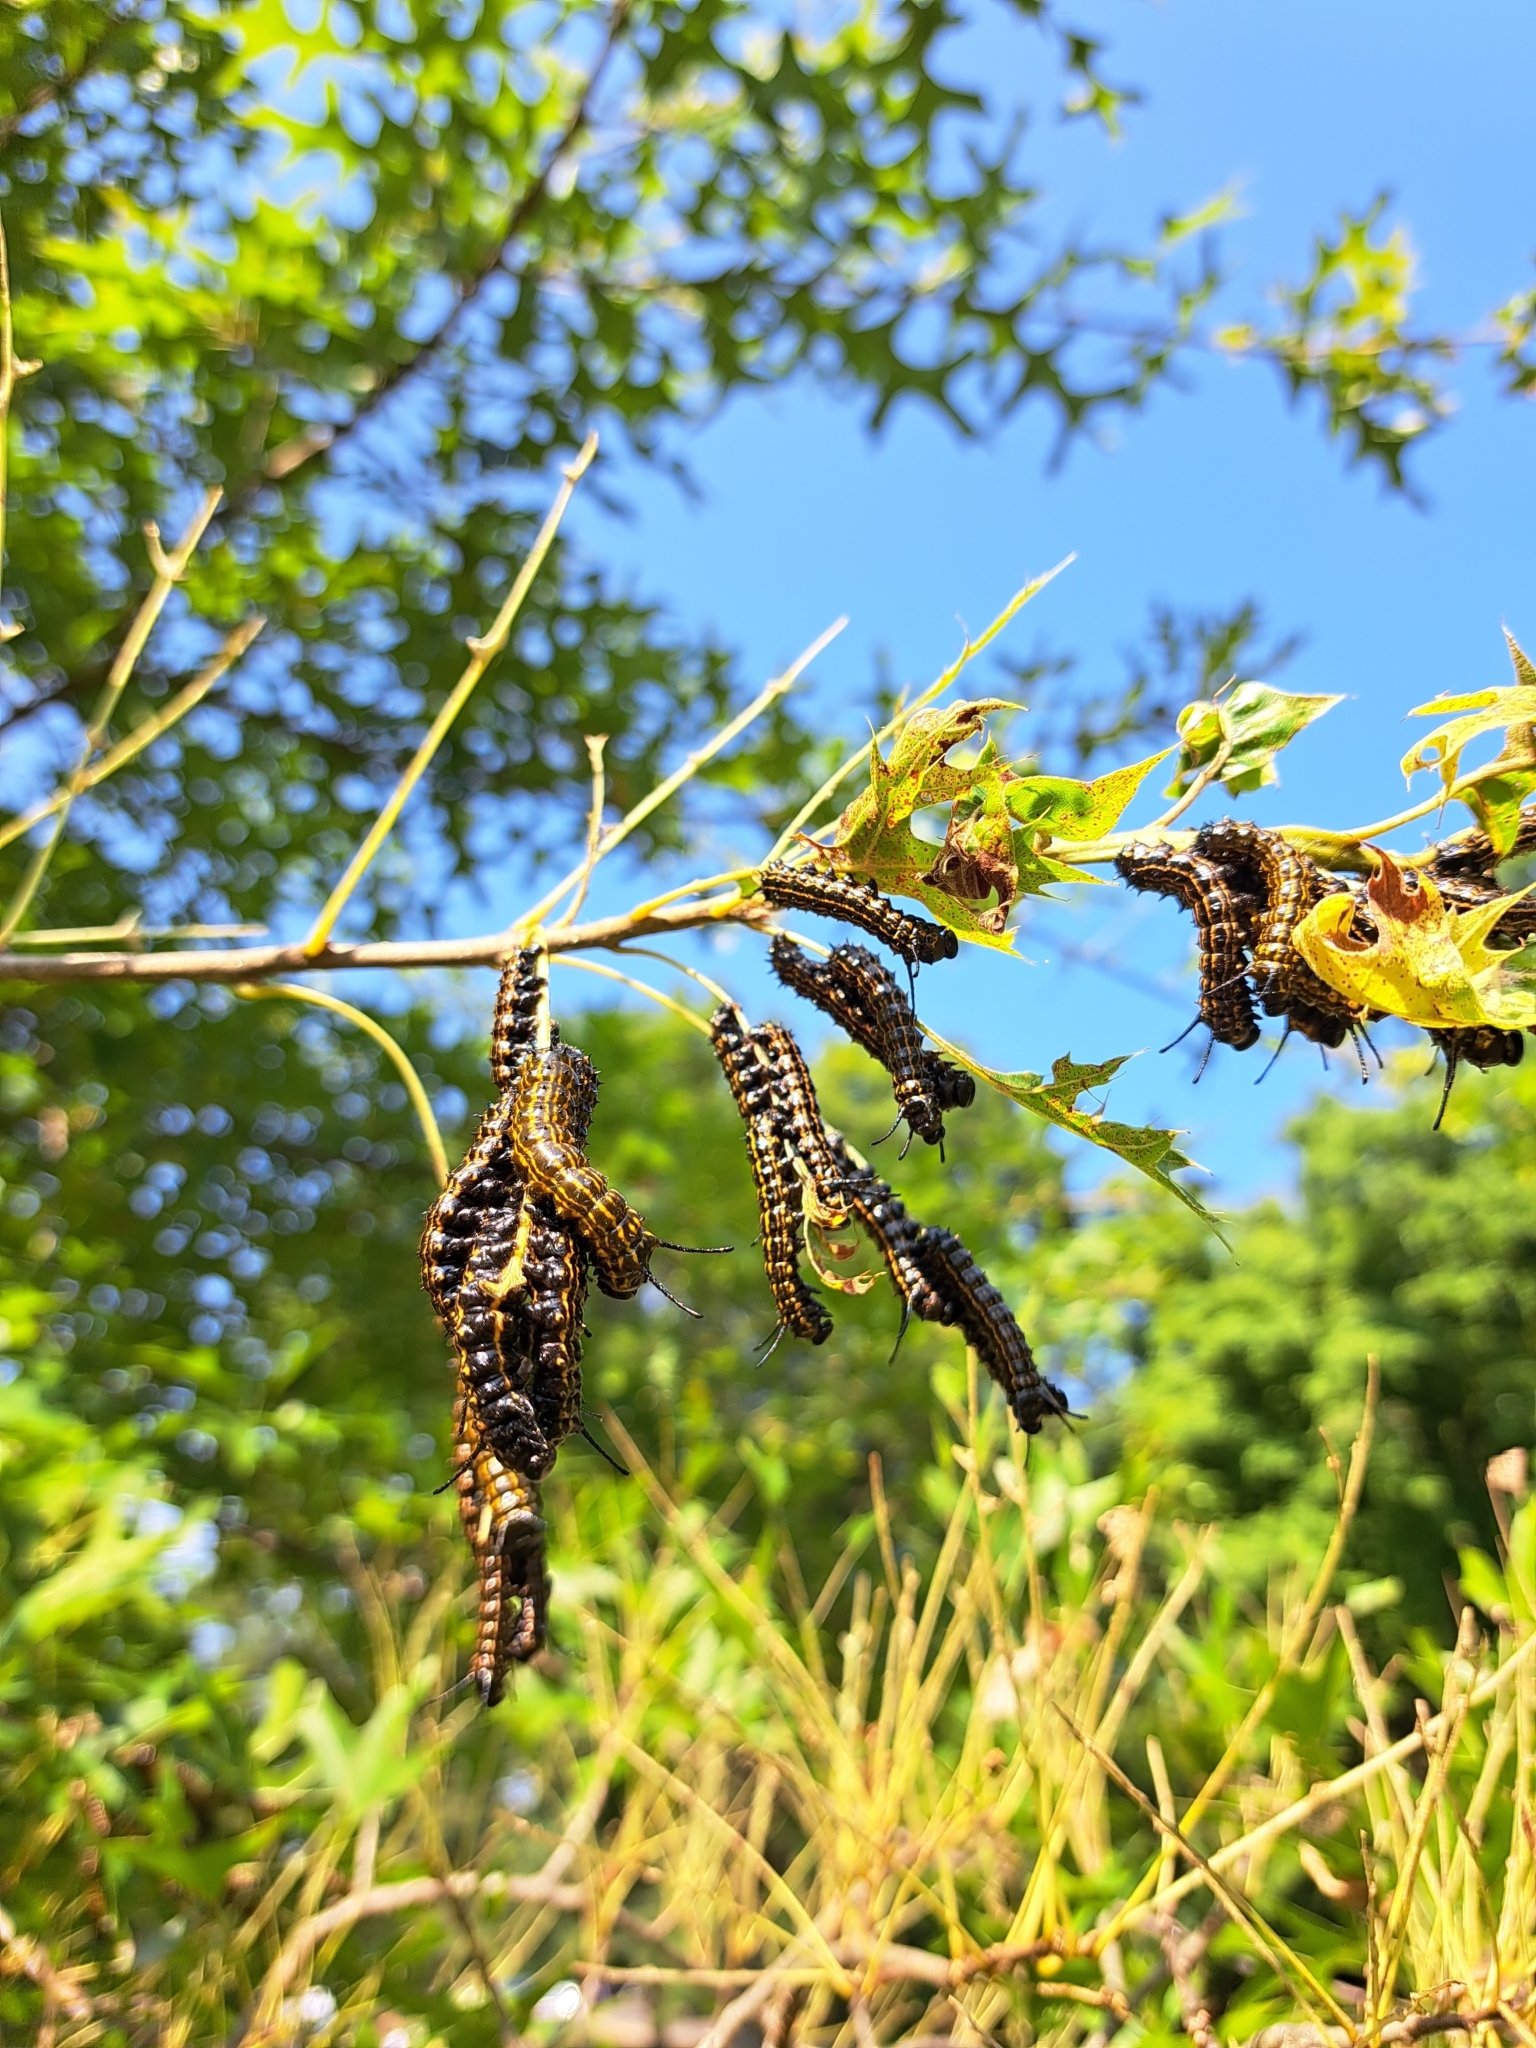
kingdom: Animalia
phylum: Arthropoda
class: Insecta
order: Lepidoptera
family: Saturniidae
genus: Anisota
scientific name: Anisota senatoria
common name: Orange-striped oakworm moth
